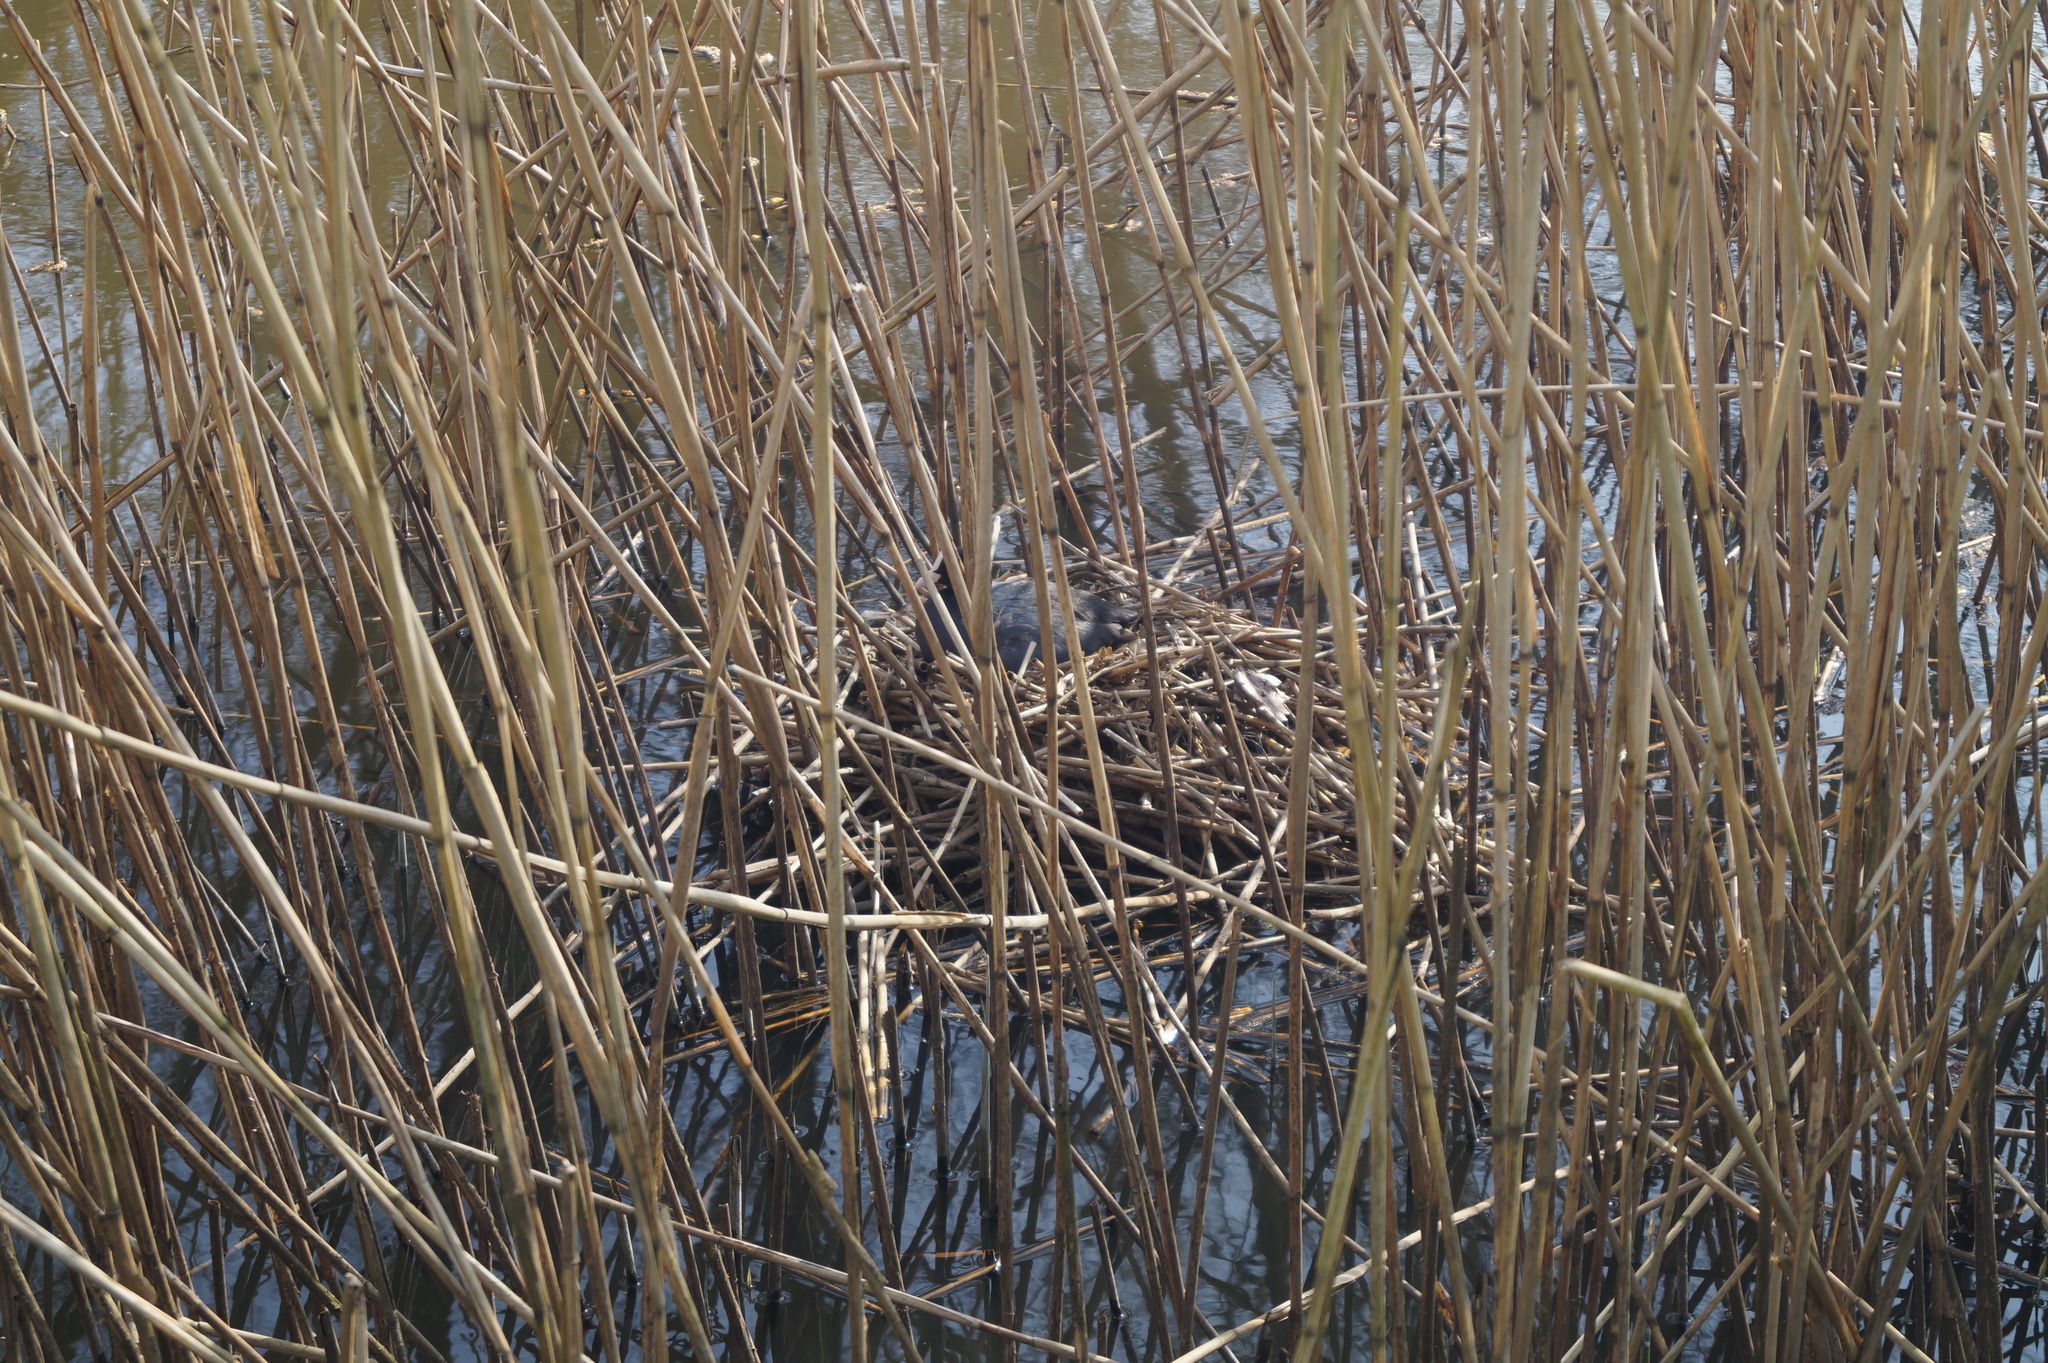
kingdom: Animalia
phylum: Chordata
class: Aves
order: Gruiformes
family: Rallidae
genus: Fulica
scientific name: Fulica atra
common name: Eurasian coot
